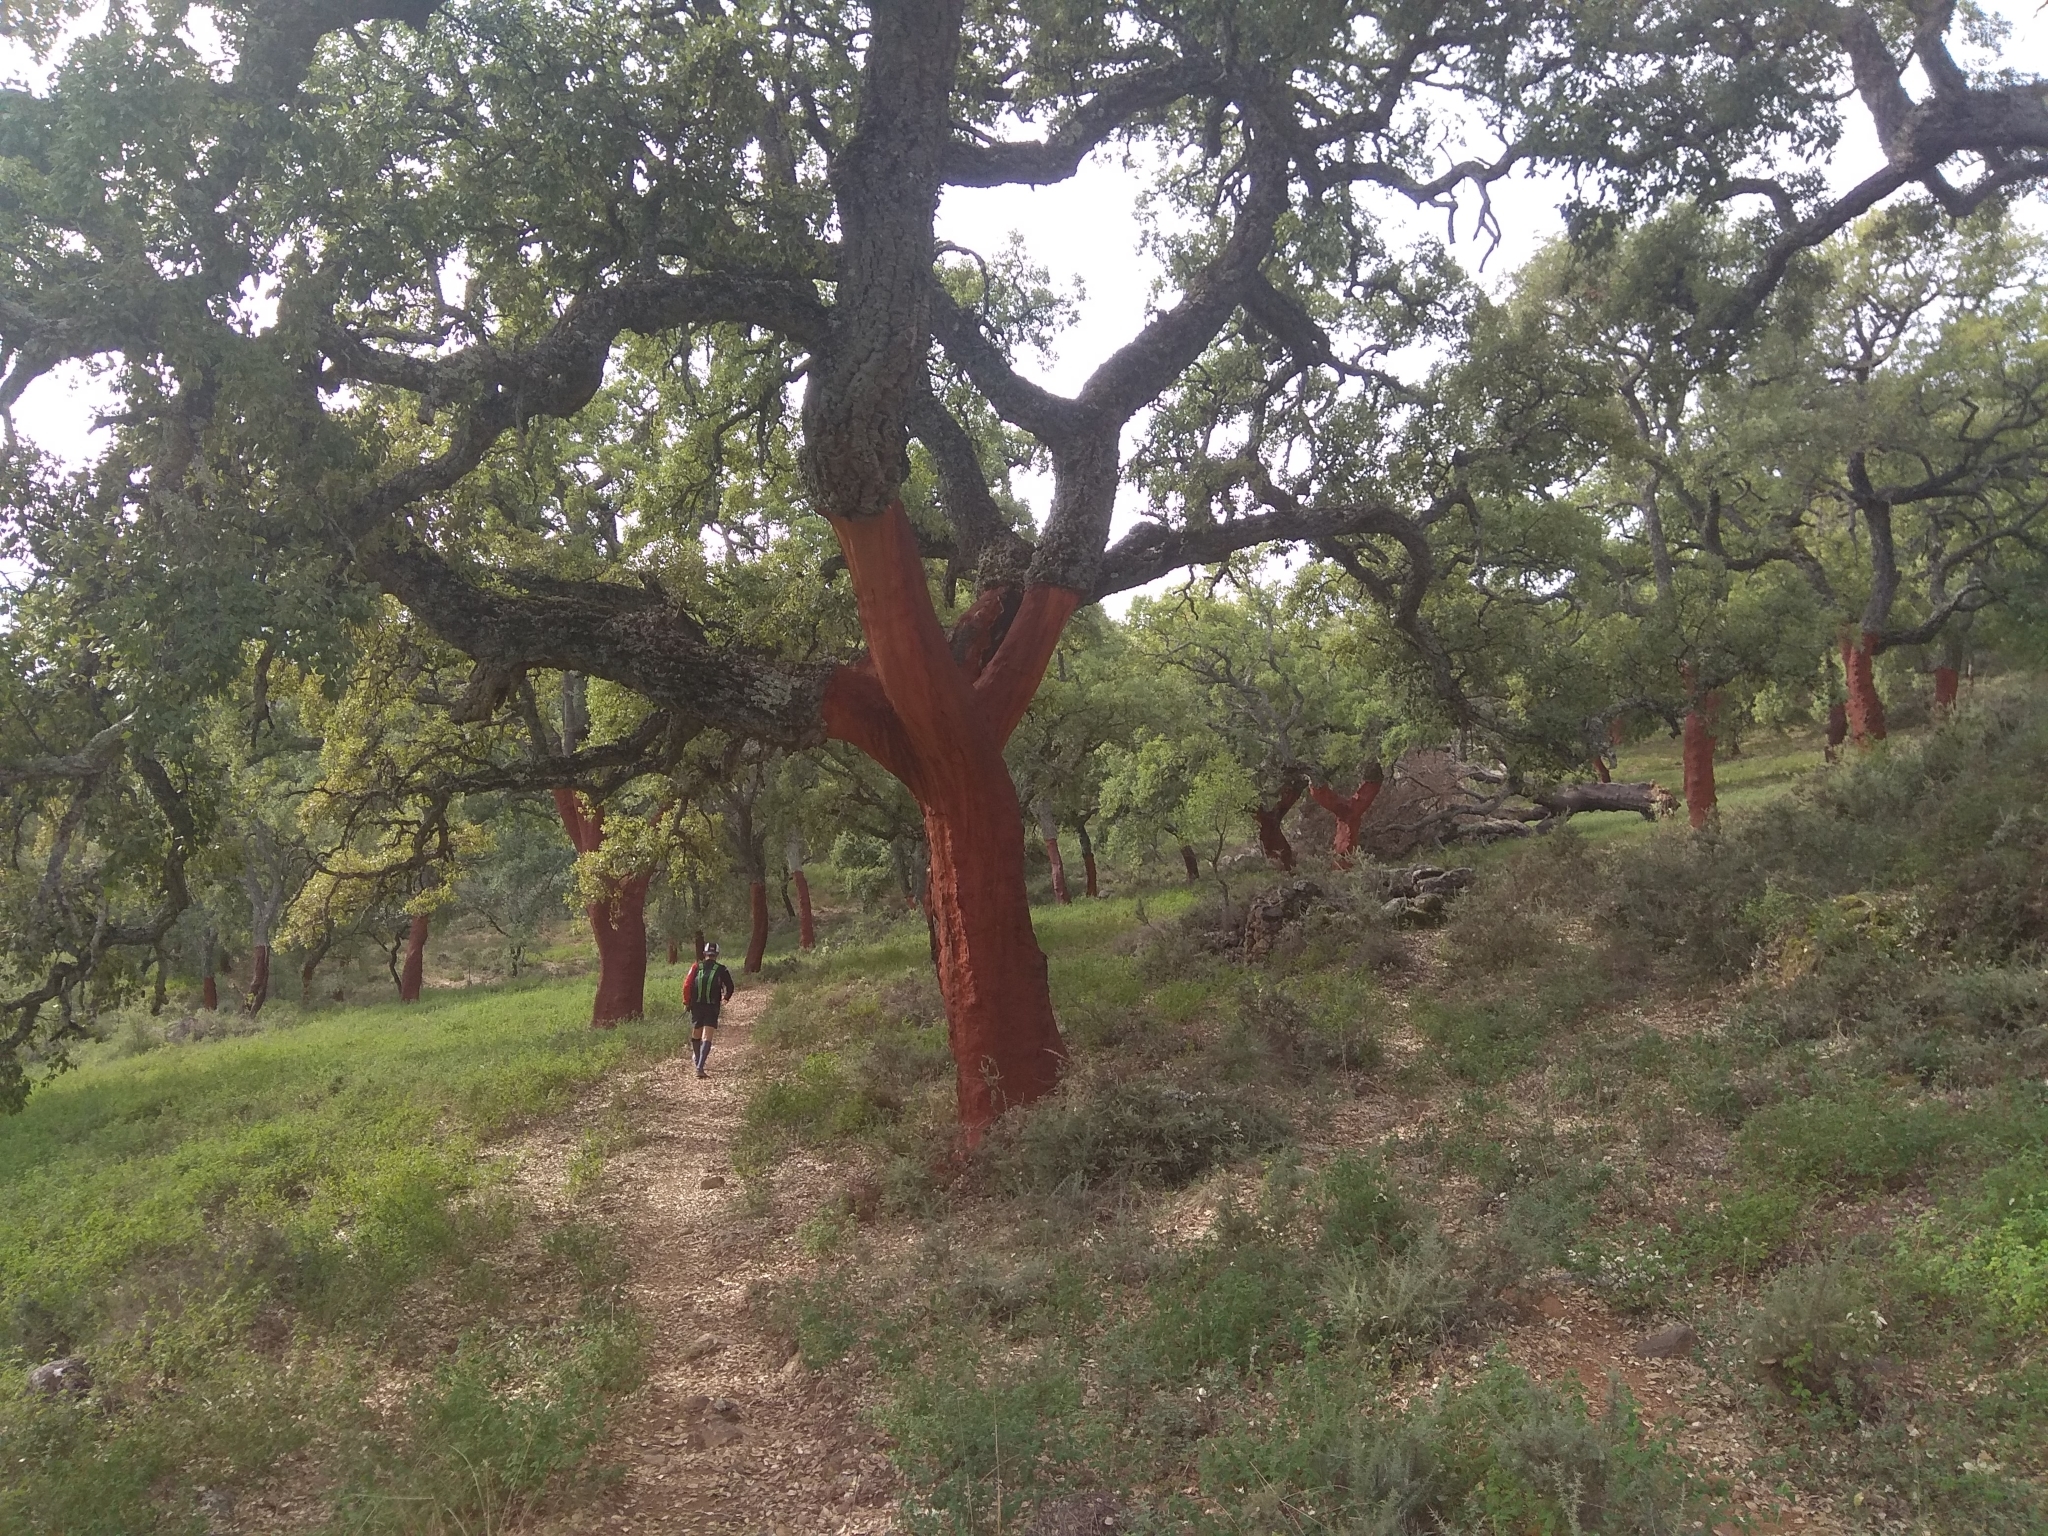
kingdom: Plantae
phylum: Tracheophyta
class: Magnoliopsida
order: Fagales
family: Fagaceae
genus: Quercus
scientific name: Quercus suber
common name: Cork oak
